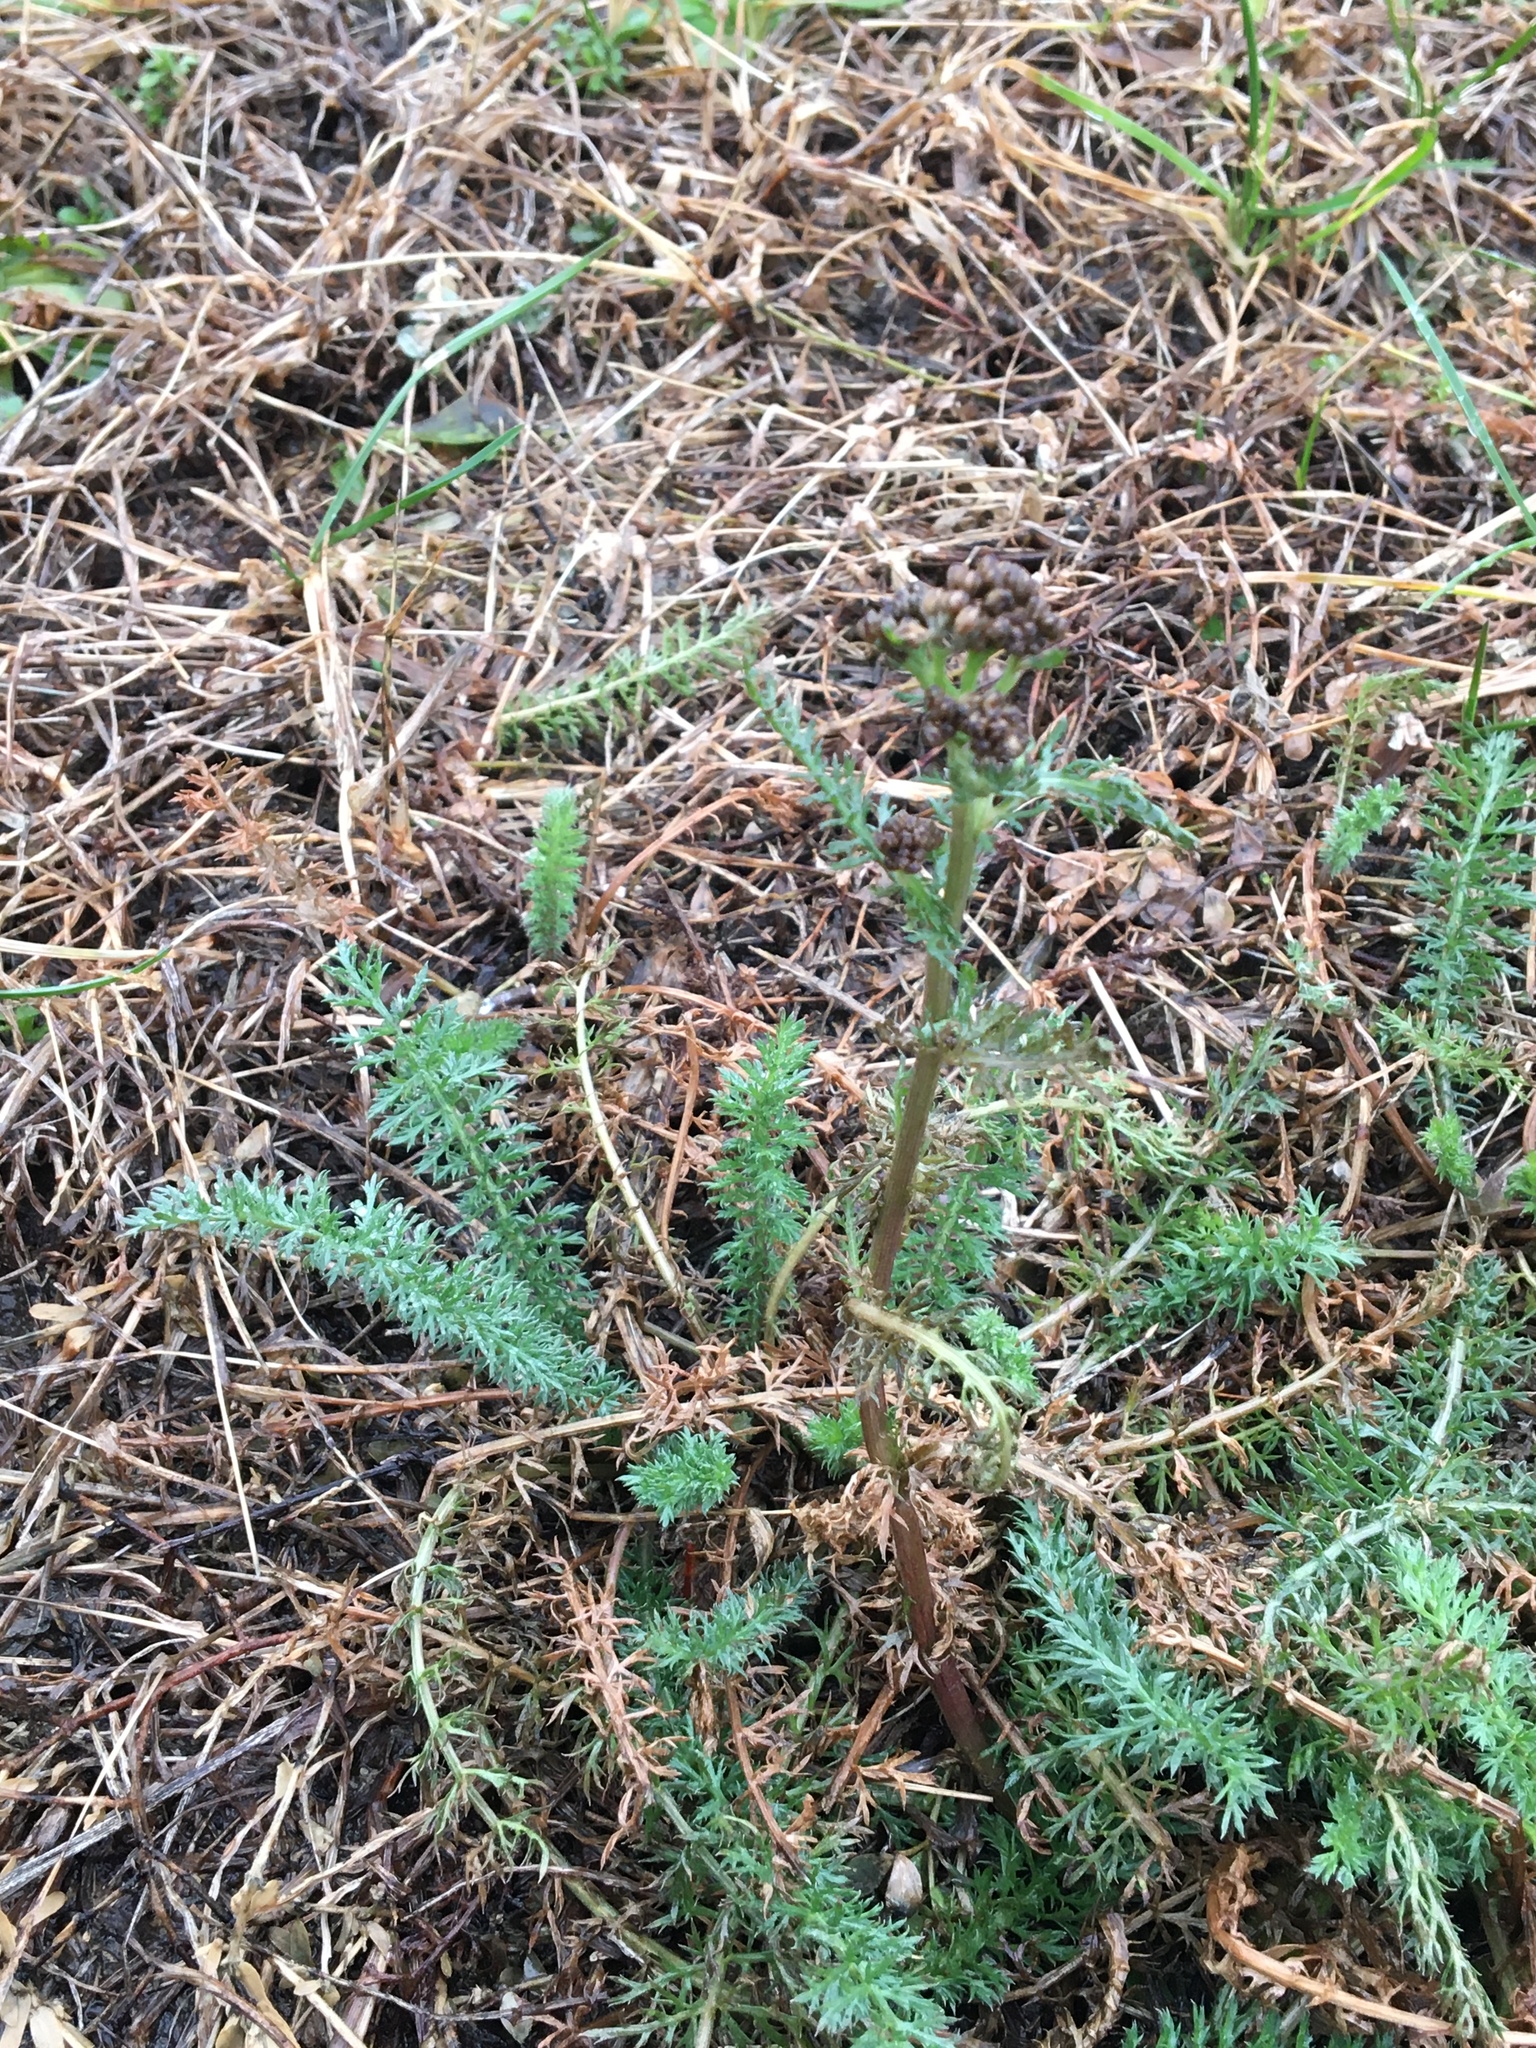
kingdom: Plantae
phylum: Tracheophyta
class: Magnoliopsida
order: Asterales
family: Asteraceae
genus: Achillea
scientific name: Achillea millefolium
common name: Yarrow
